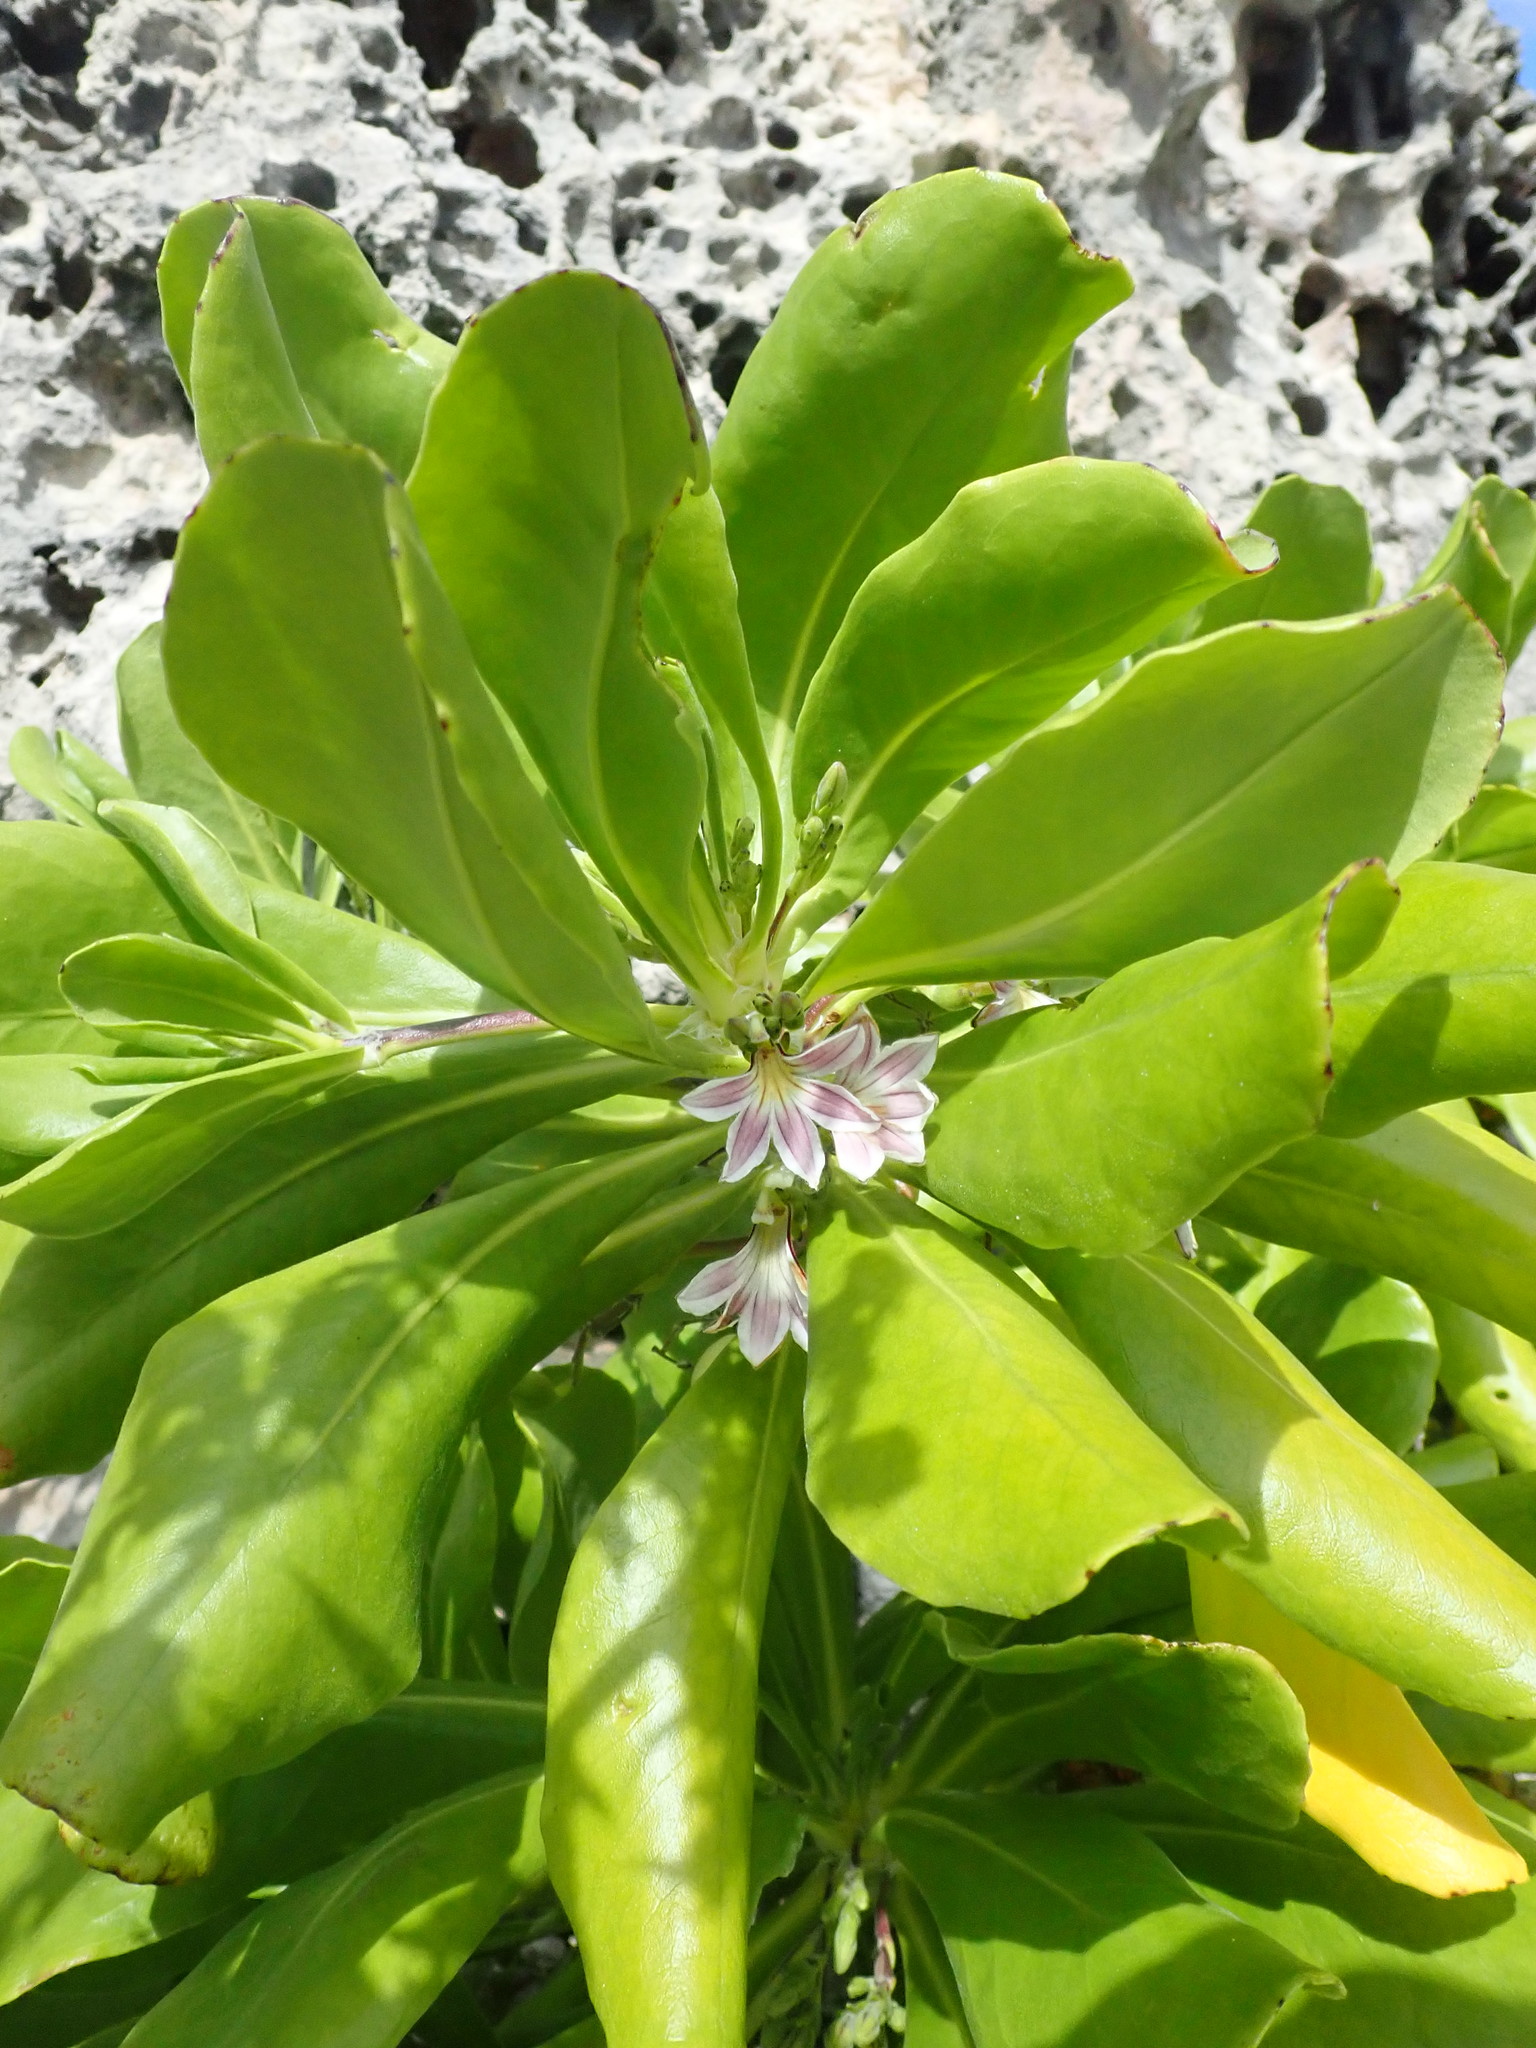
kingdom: Plantae
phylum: Tracheophyta
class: Magnoliopsida
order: Asterales
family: Goodeniaceae
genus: Scaevola
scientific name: Scaevola taccada
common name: Sea lettucetree
